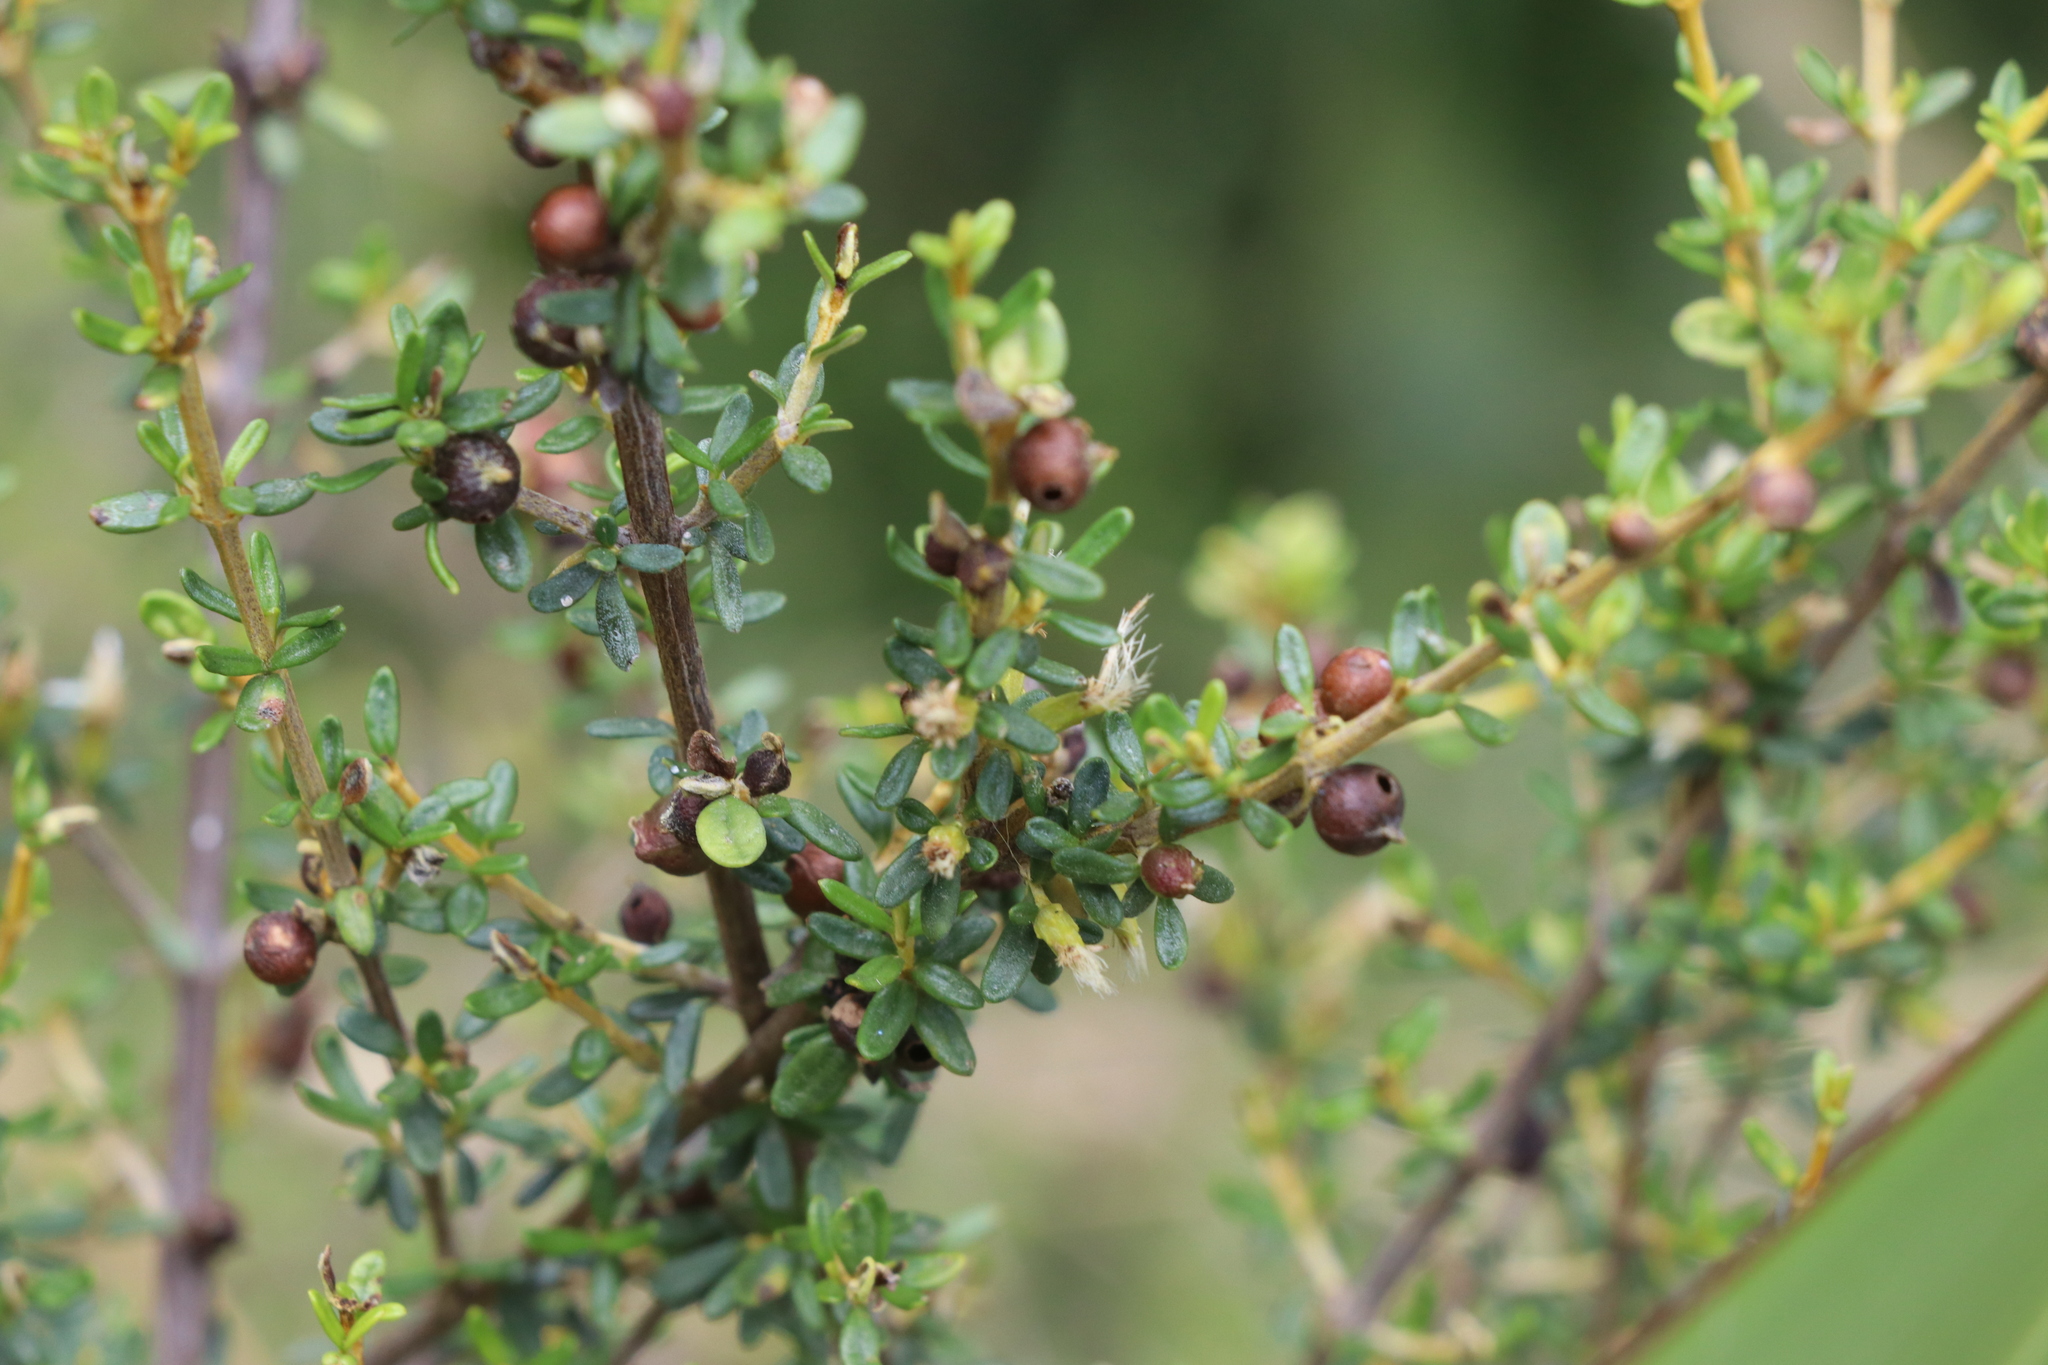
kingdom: Plantae
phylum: Tracheophyta
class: Magnoliopsida
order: Asterales
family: Asteraceae
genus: Olearia
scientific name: Olearia solandri
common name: Coastal daisybush
